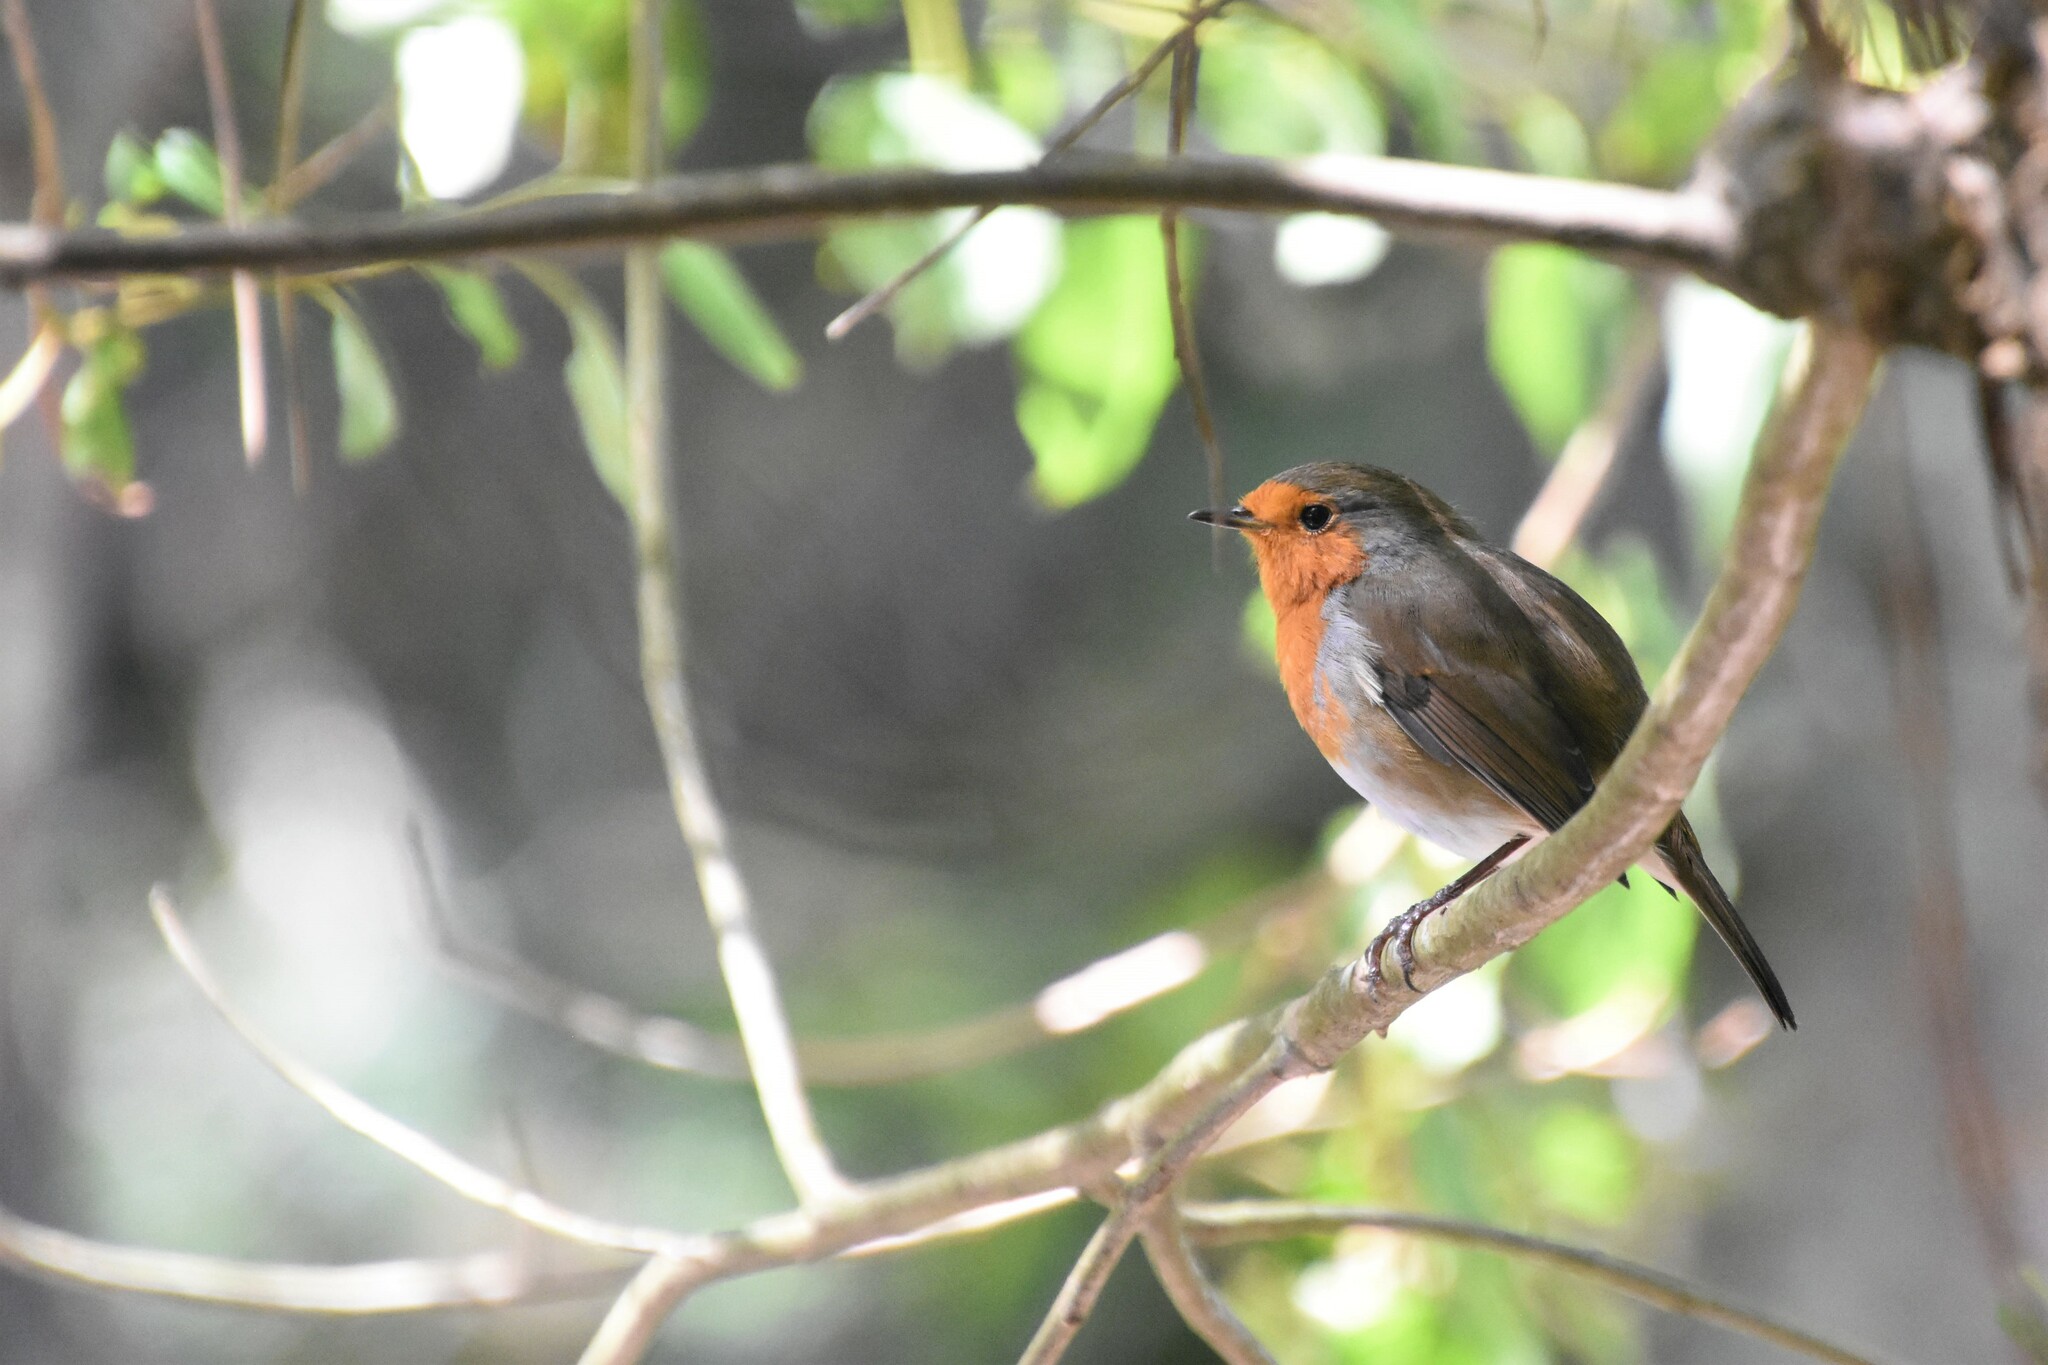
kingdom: Animalia
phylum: Chordata
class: Aves
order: Passeriformes
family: Muscicapidae
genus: Erithacus
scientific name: Erithacus rubecula
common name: European robin
